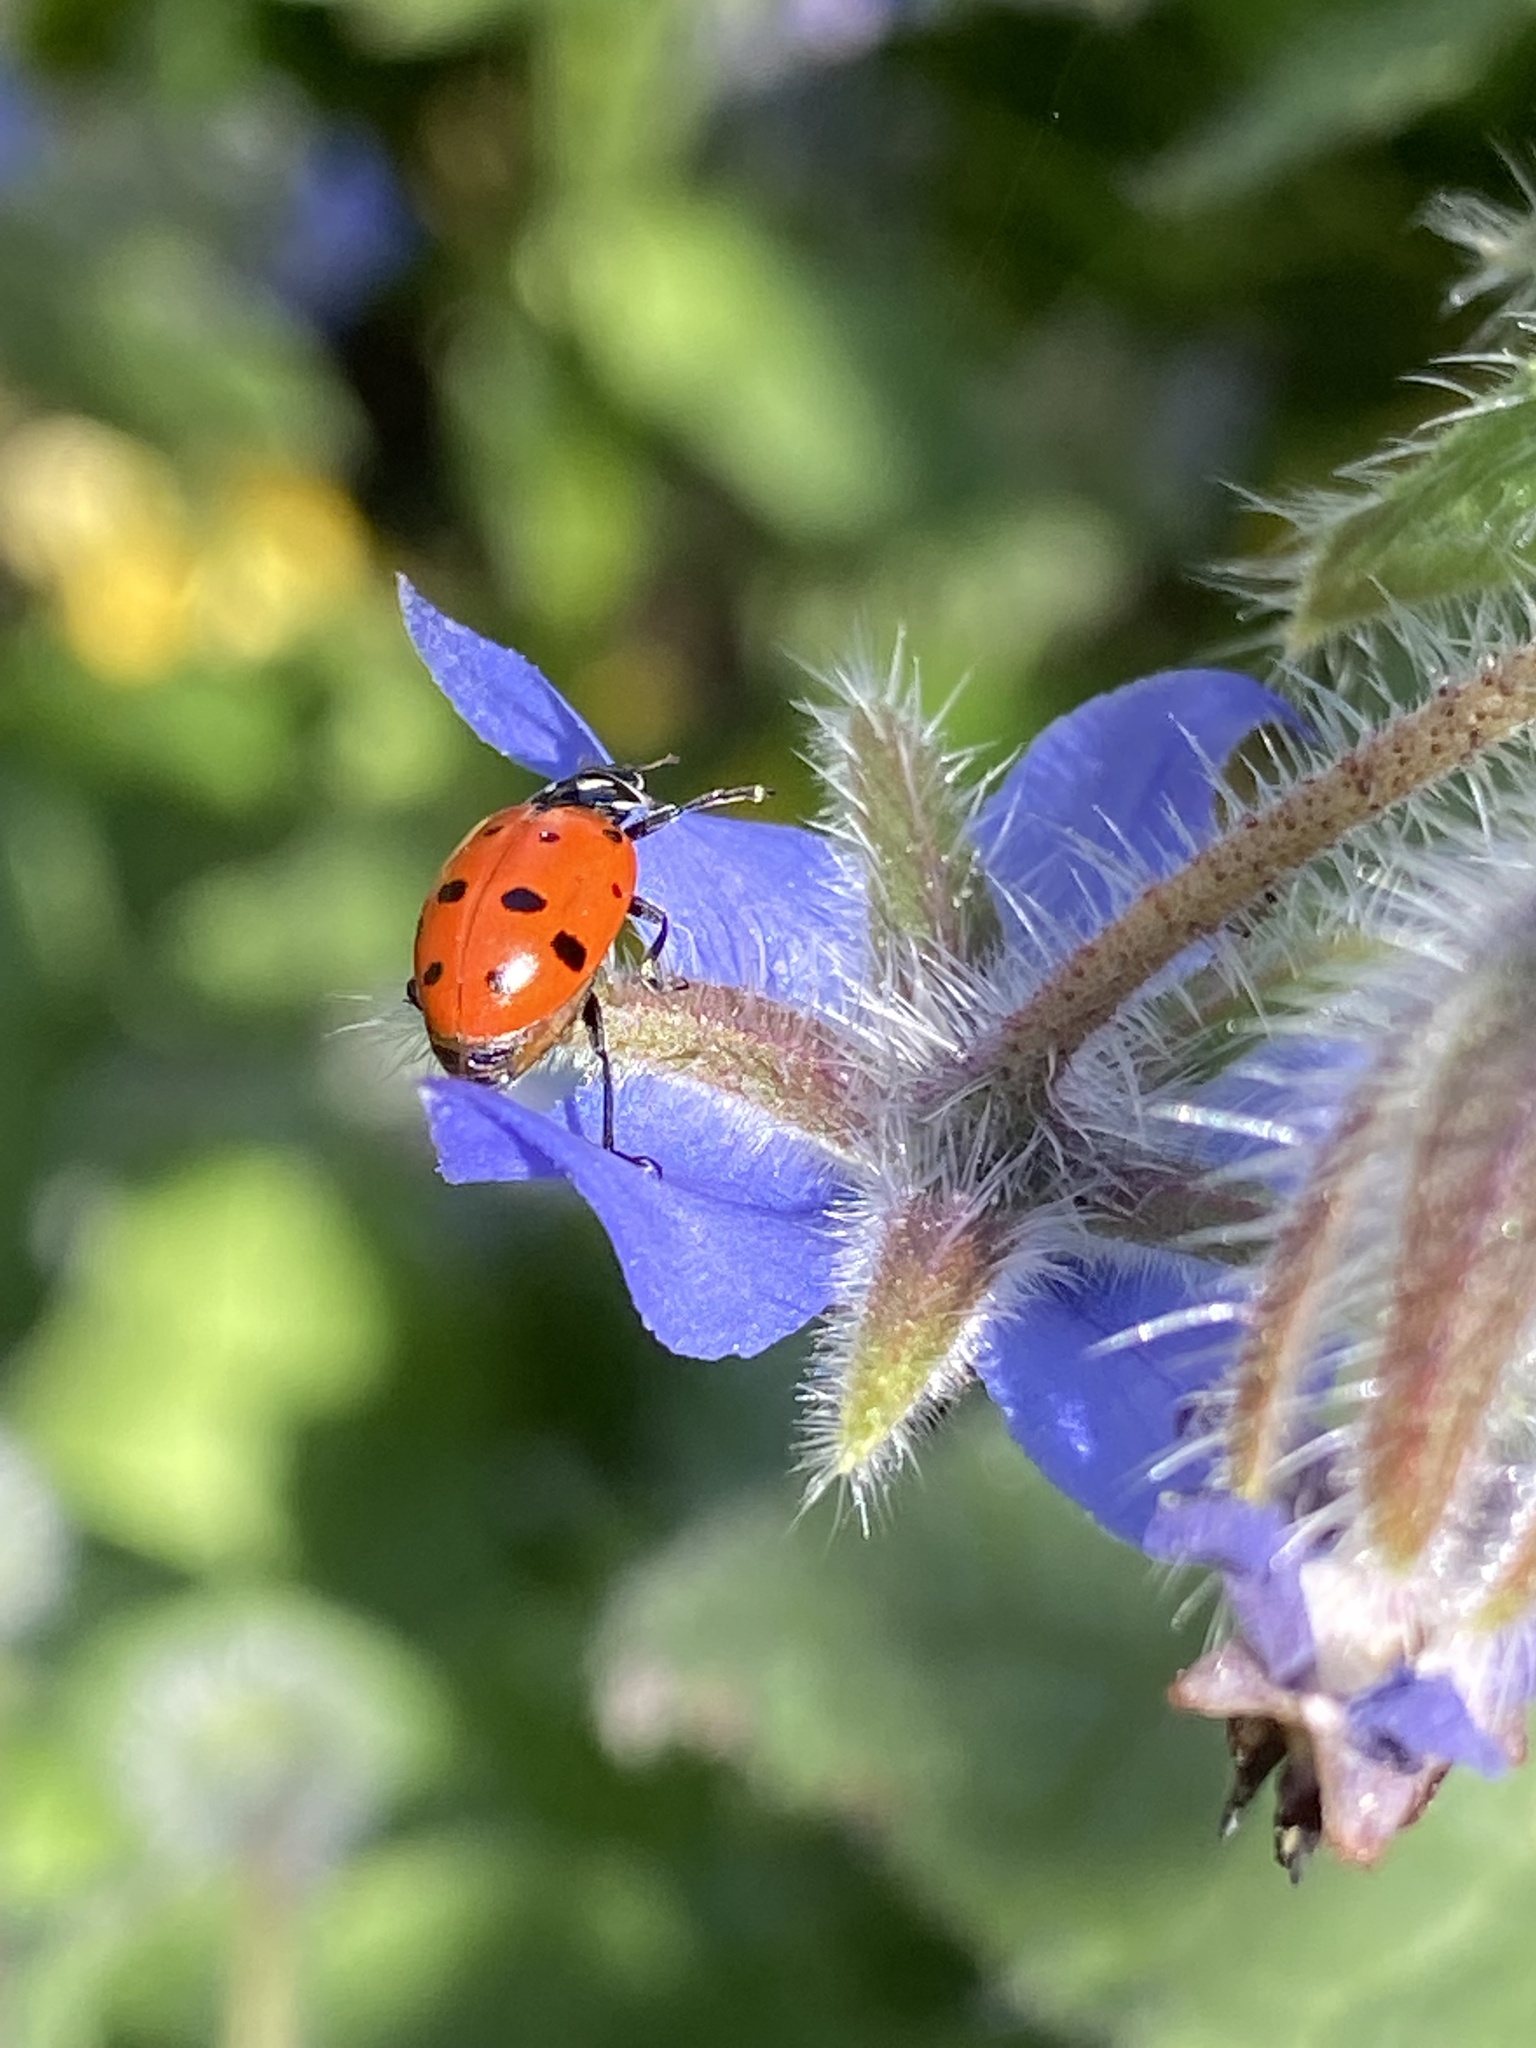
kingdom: Animalia
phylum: Arthropoda
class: Insecta
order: Coleoptera
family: Coccinellidae
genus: Hippodamia
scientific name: Hippodamia convergens
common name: Convergent lady beetle
